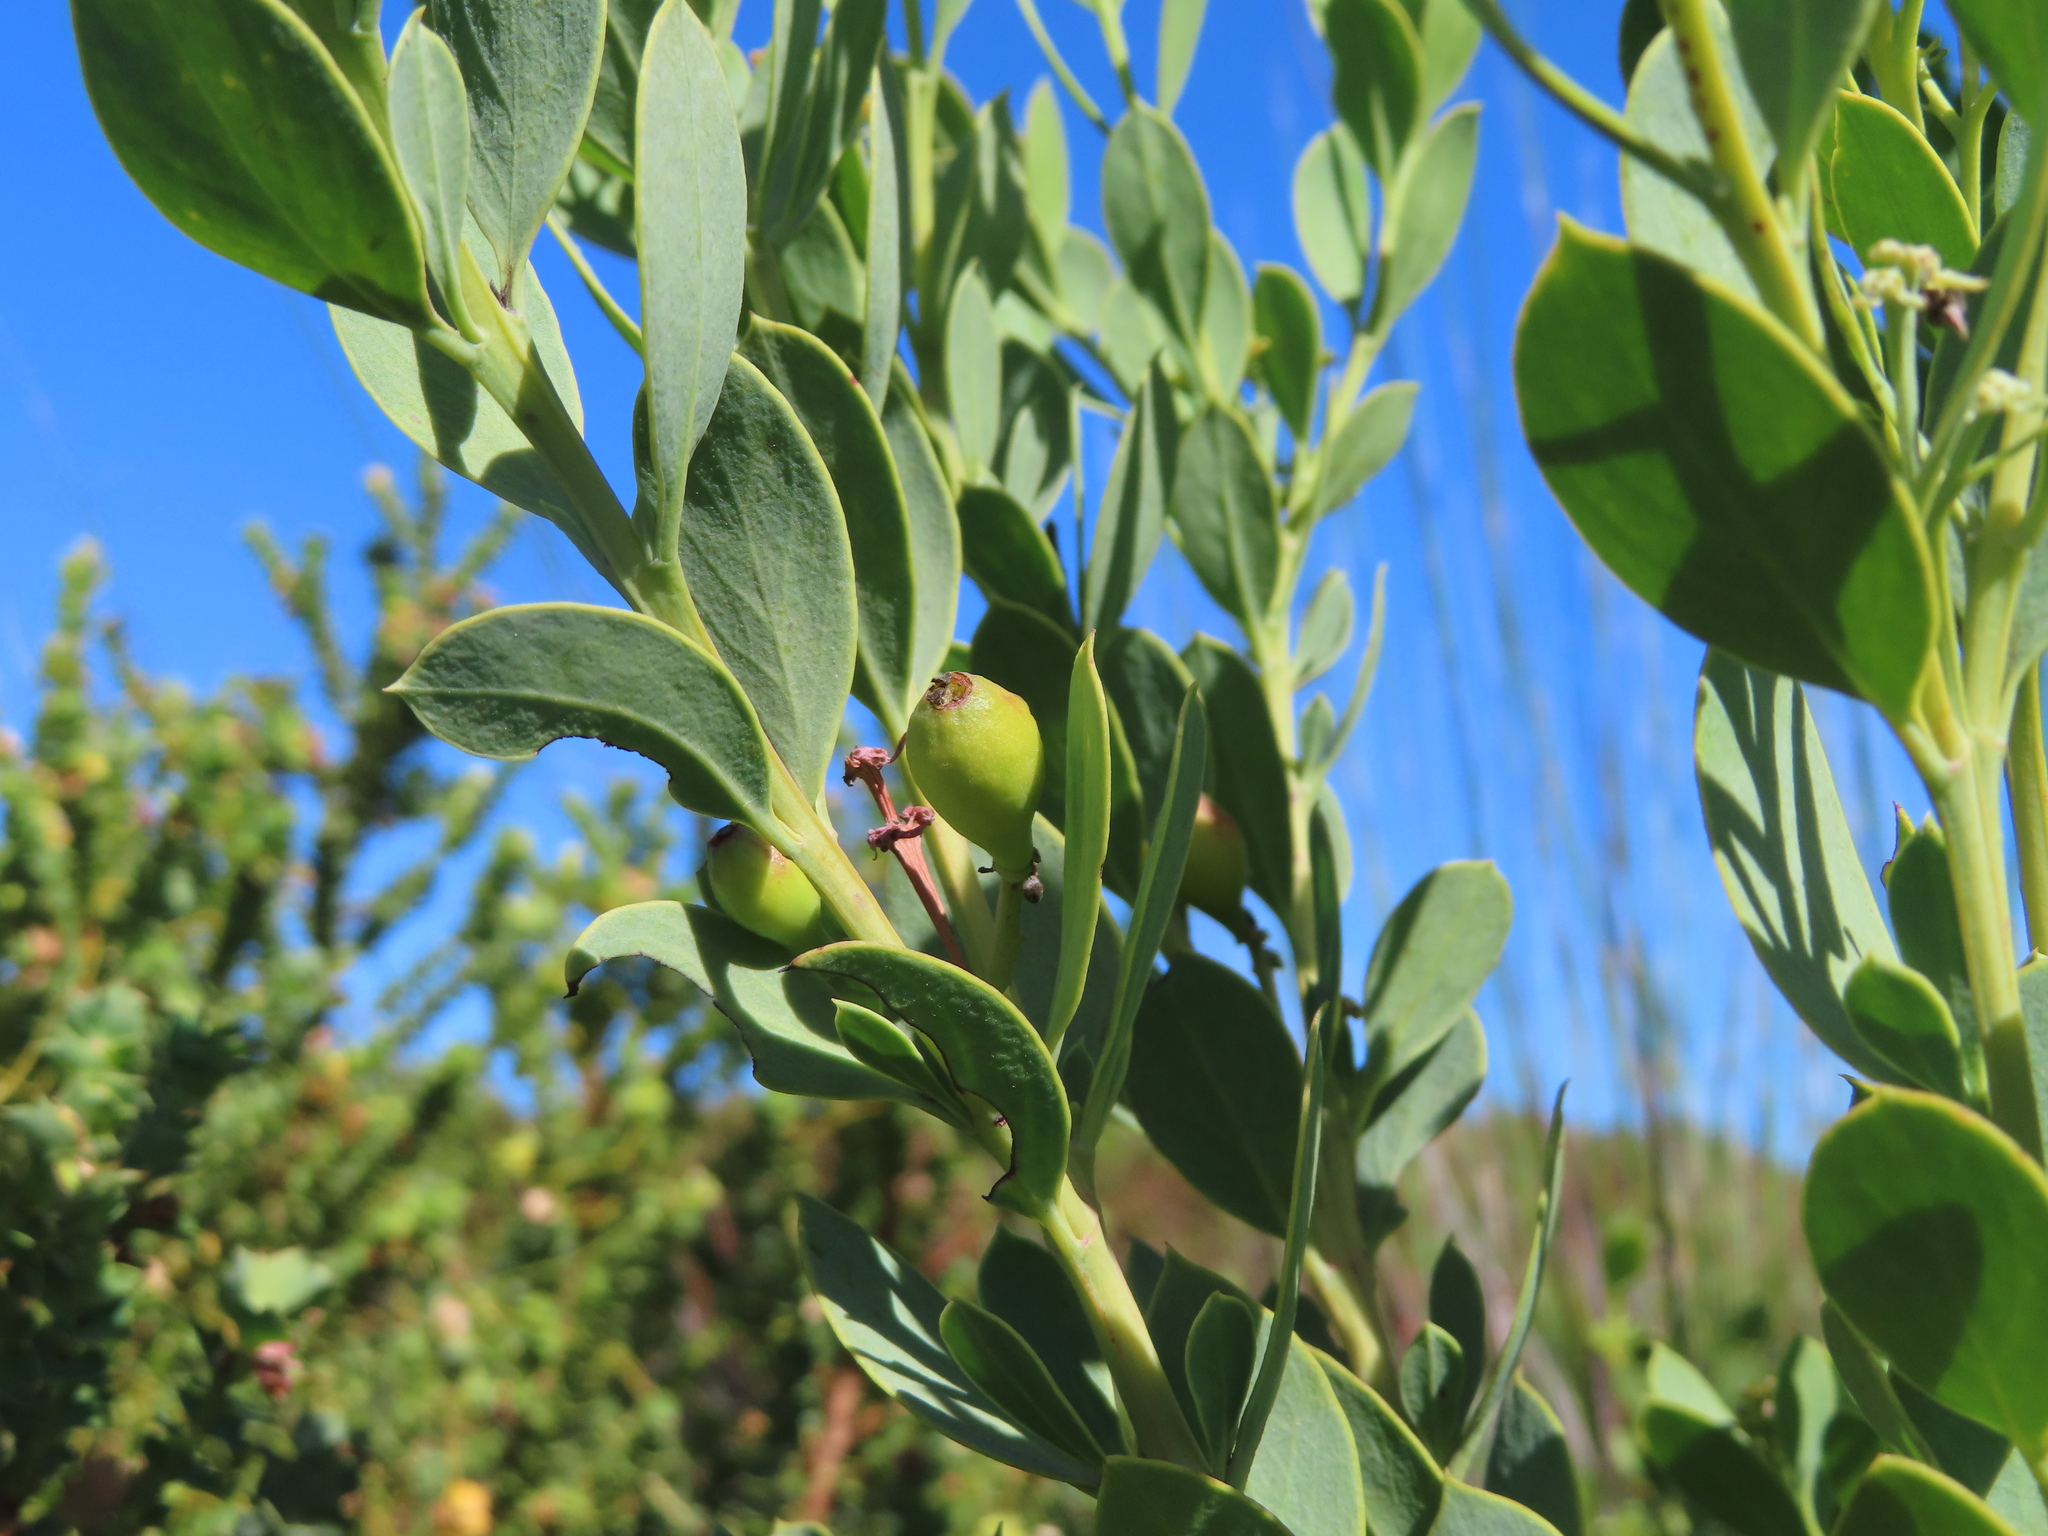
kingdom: Plantae
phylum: Tracheophyta
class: Magnoliopsida
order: Santalales
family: Santalaceae
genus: Osyris
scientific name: Osyris compressa
